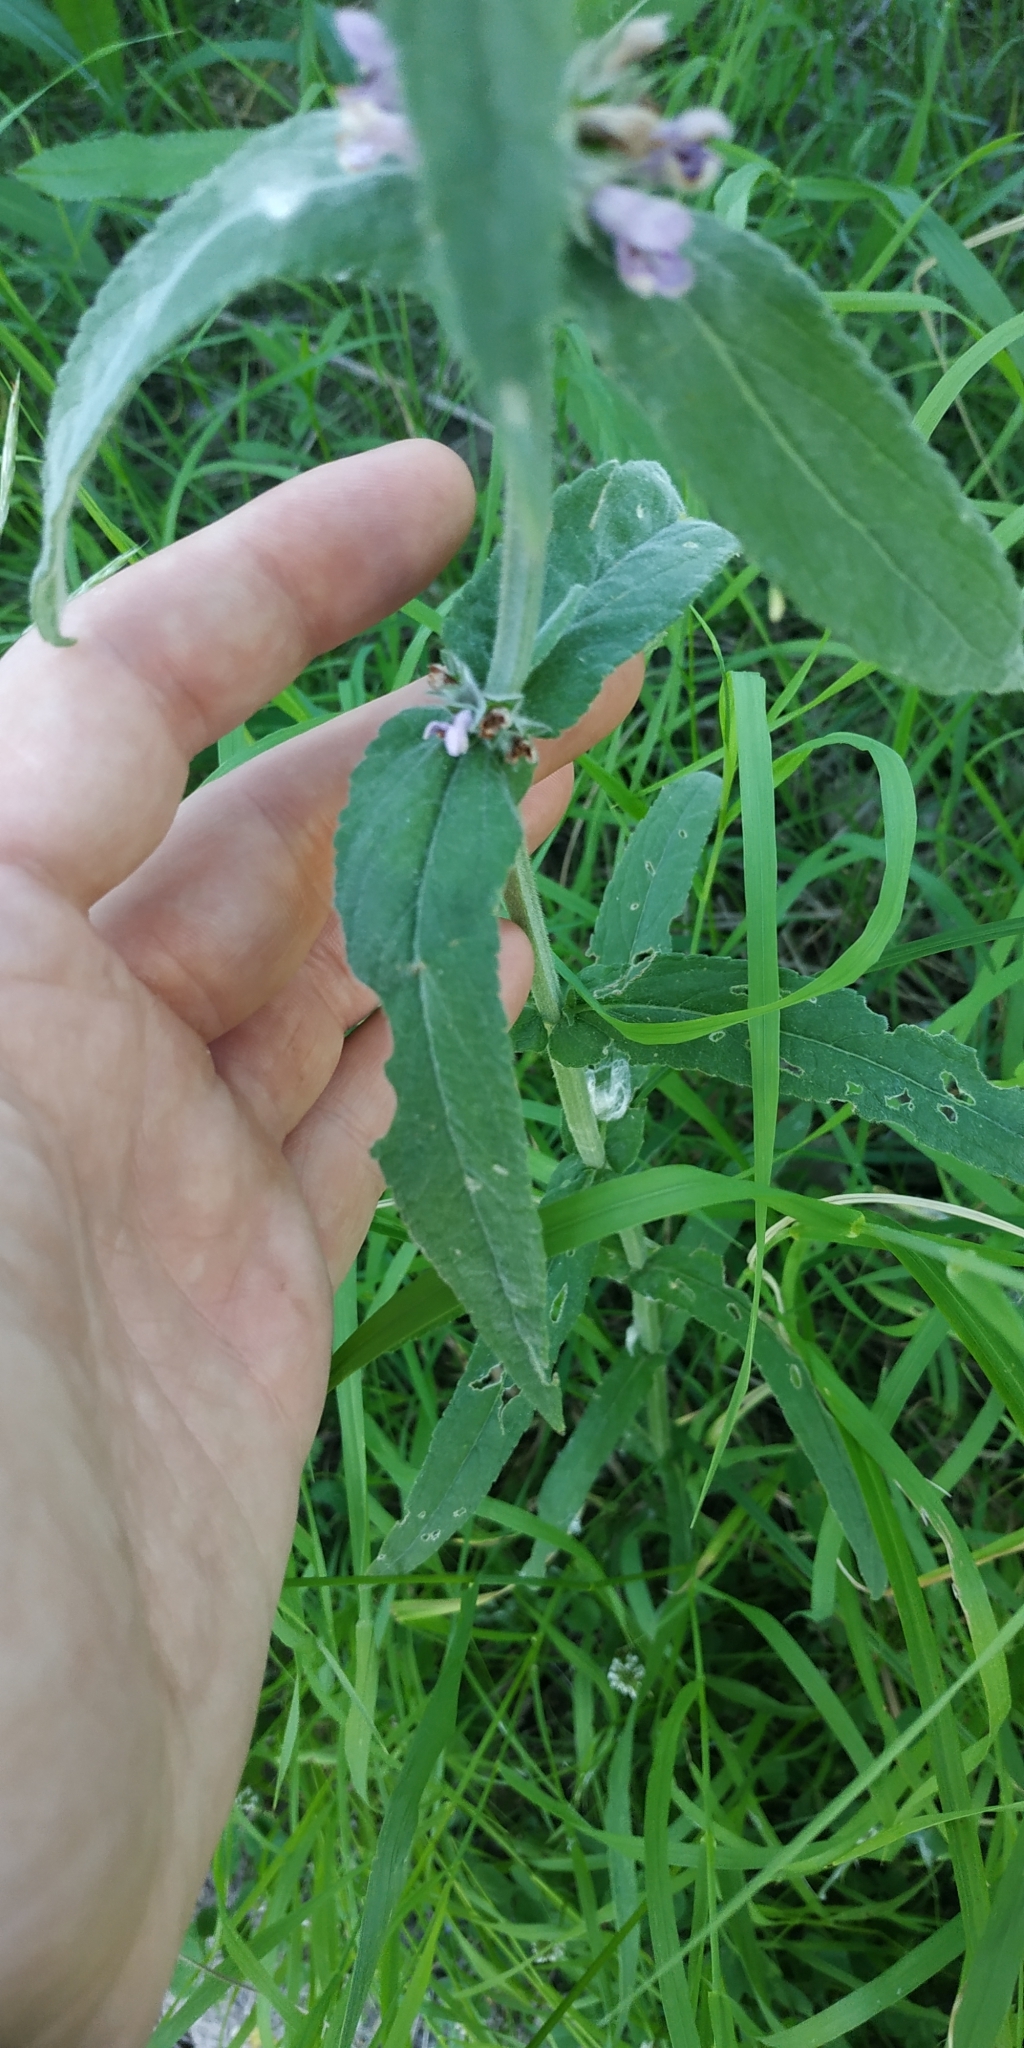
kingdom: Plantae
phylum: Tracheophyta
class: Magnoliopsida
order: Lamiales
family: Lamiaceae
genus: Stachys
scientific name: Stachys palustris
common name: Marsh woundwort
